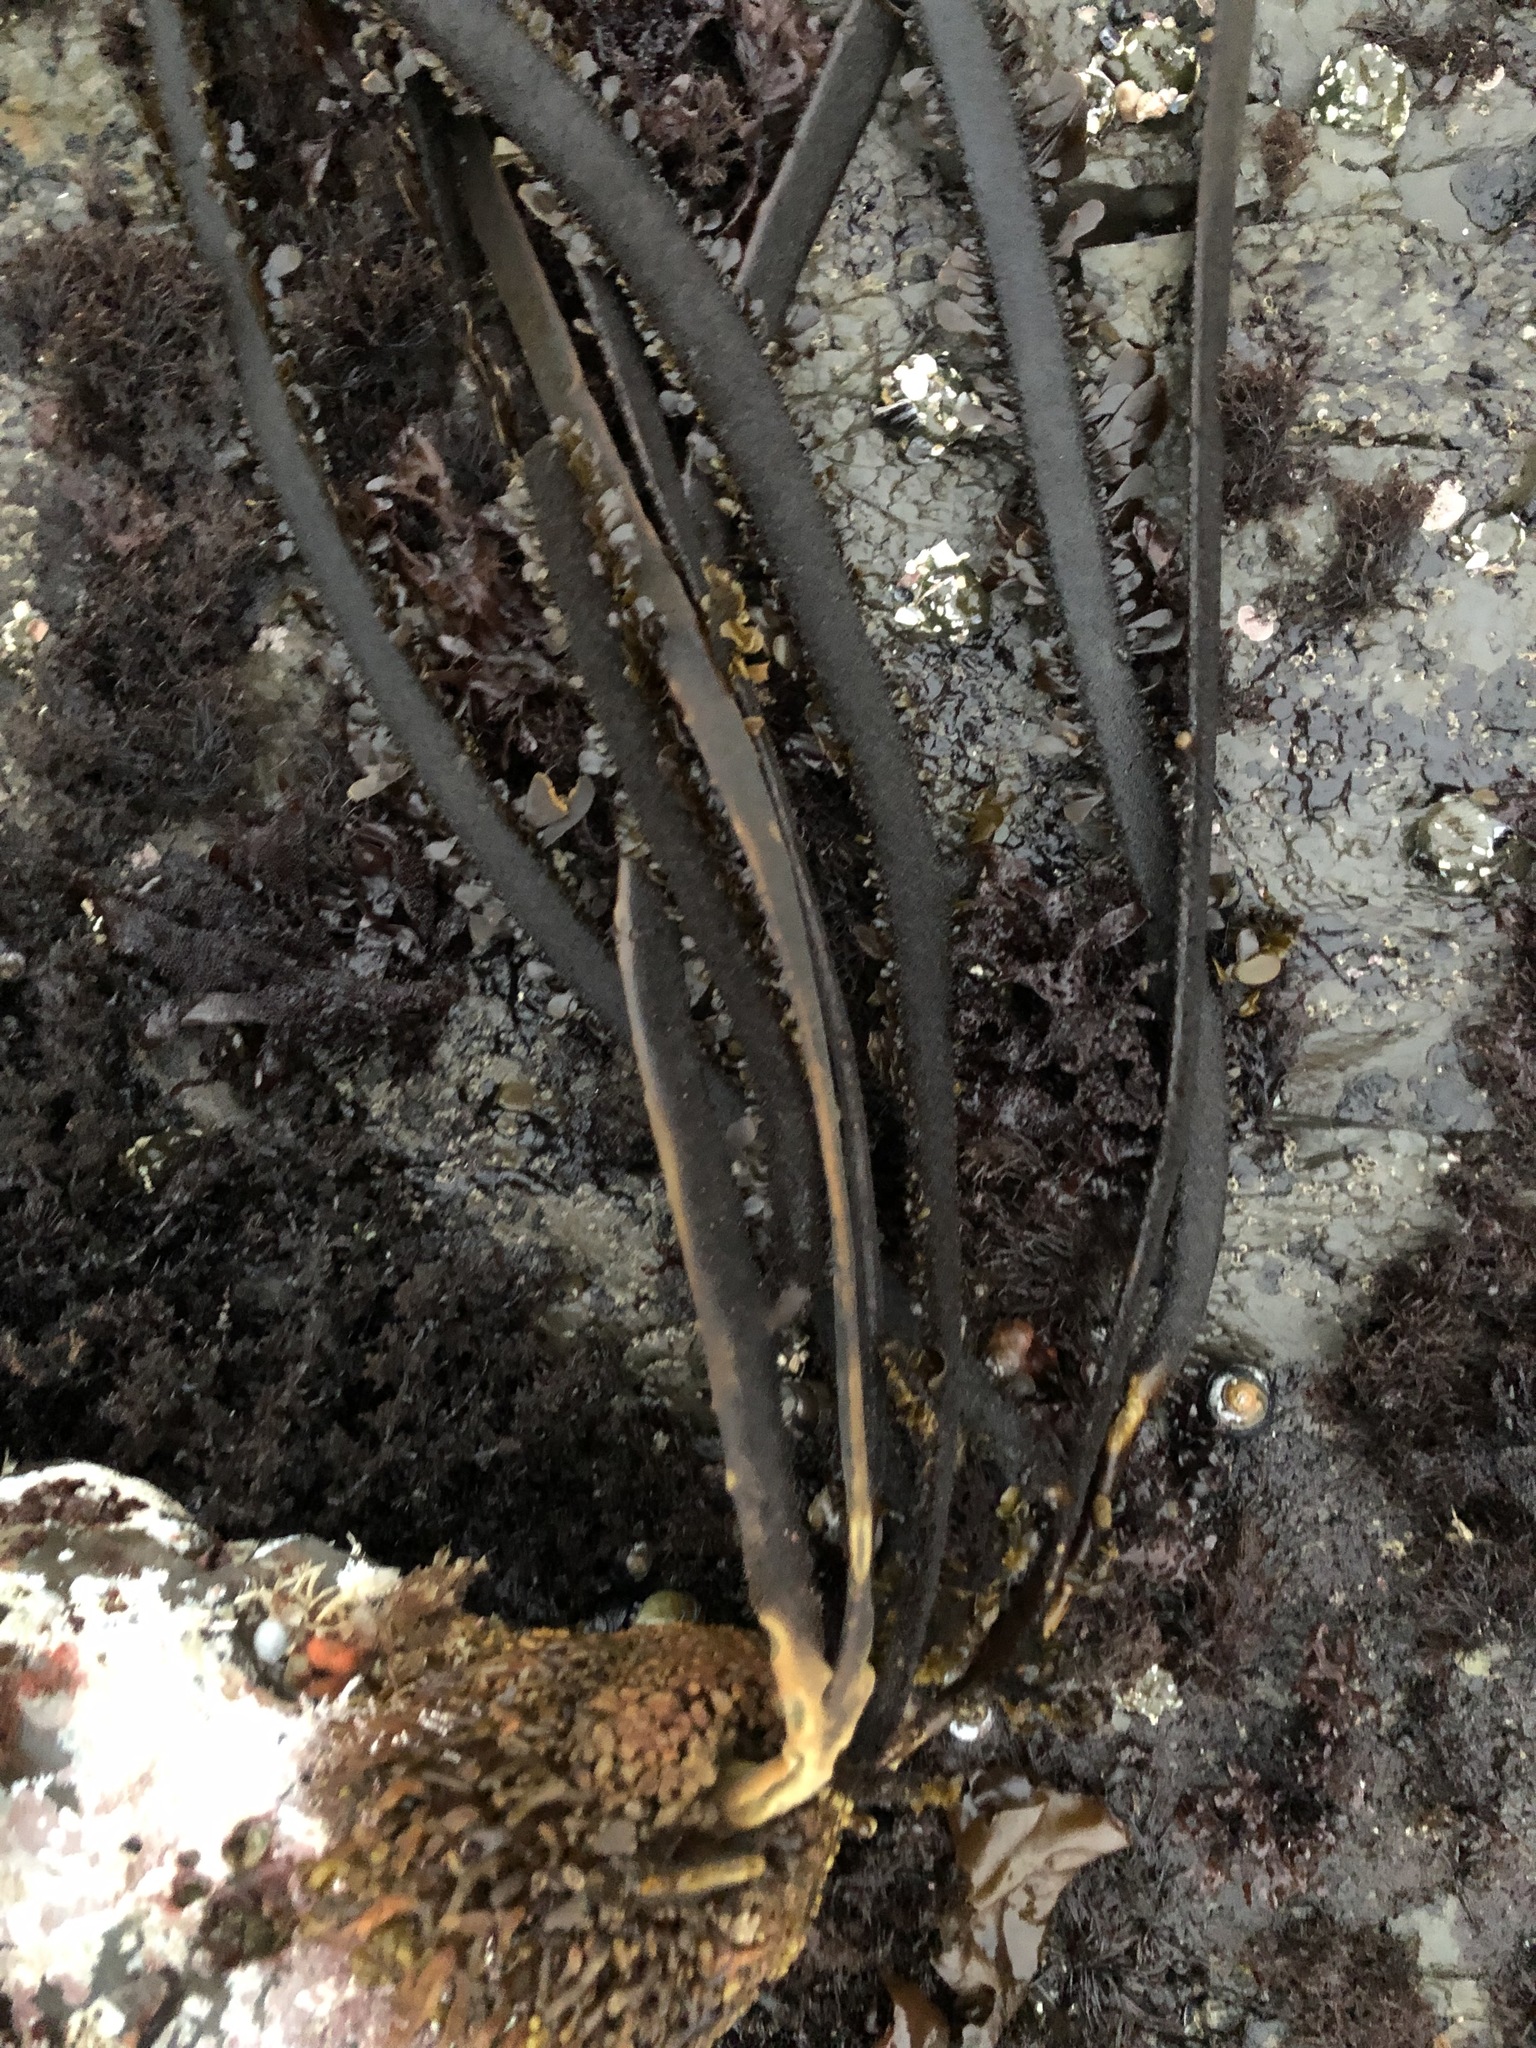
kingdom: Chromista
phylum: Ochrophyta
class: Phaeophyceae
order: Laminariales
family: Lessoniaceae
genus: Egregia
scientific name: Egregia menziesii
